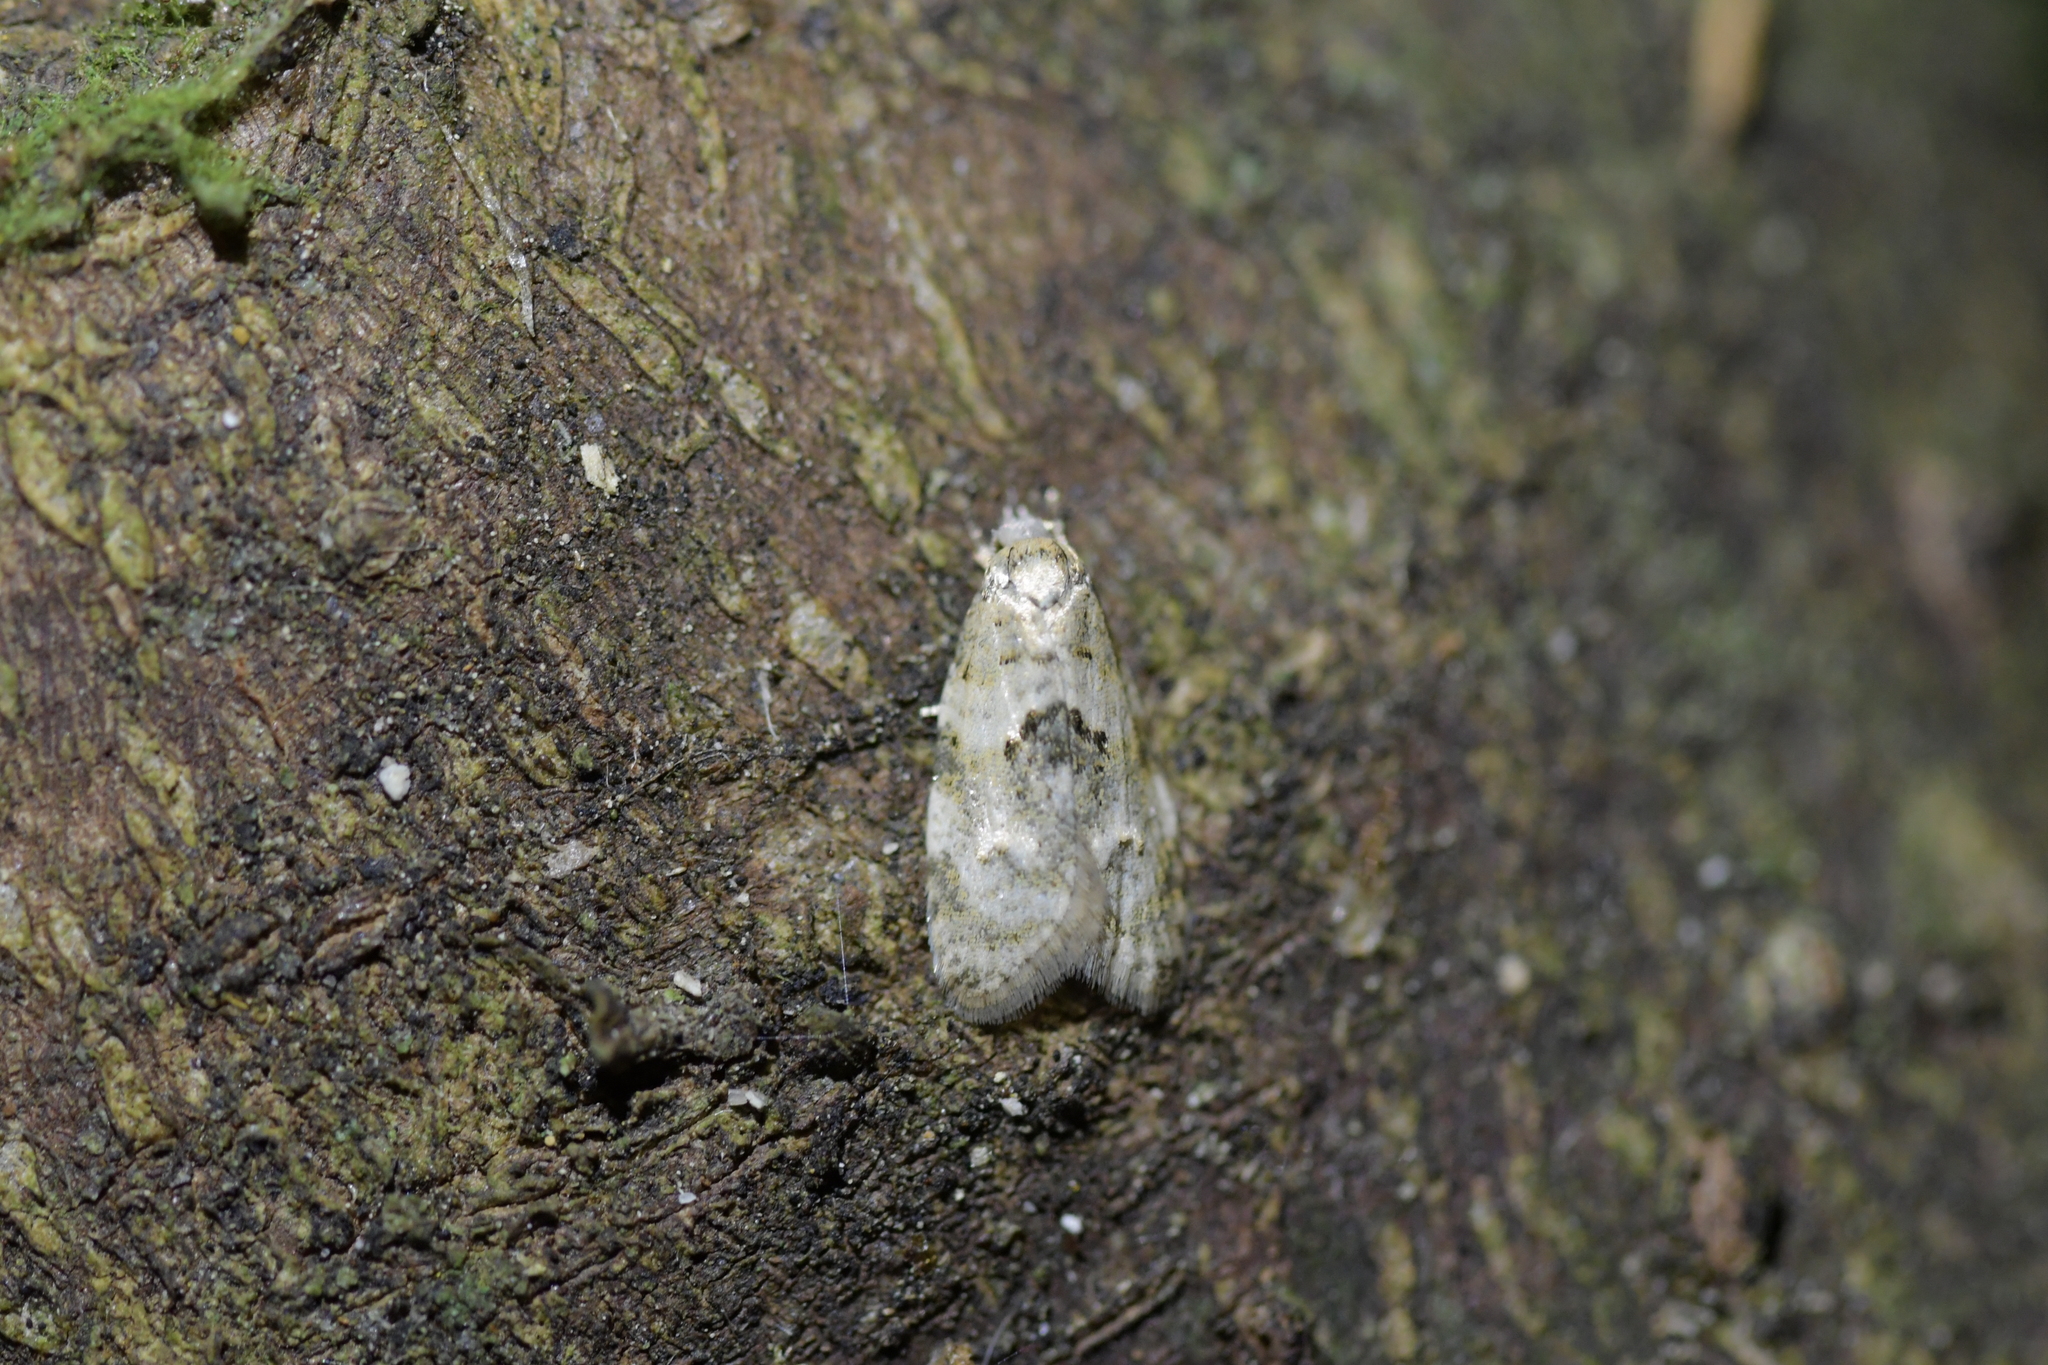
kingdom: Animalia
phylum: Arthropoda
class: Insecta
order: Lepidoptera
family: Tortricidae
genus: Dipterina
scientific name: Dipterina imbriferana
